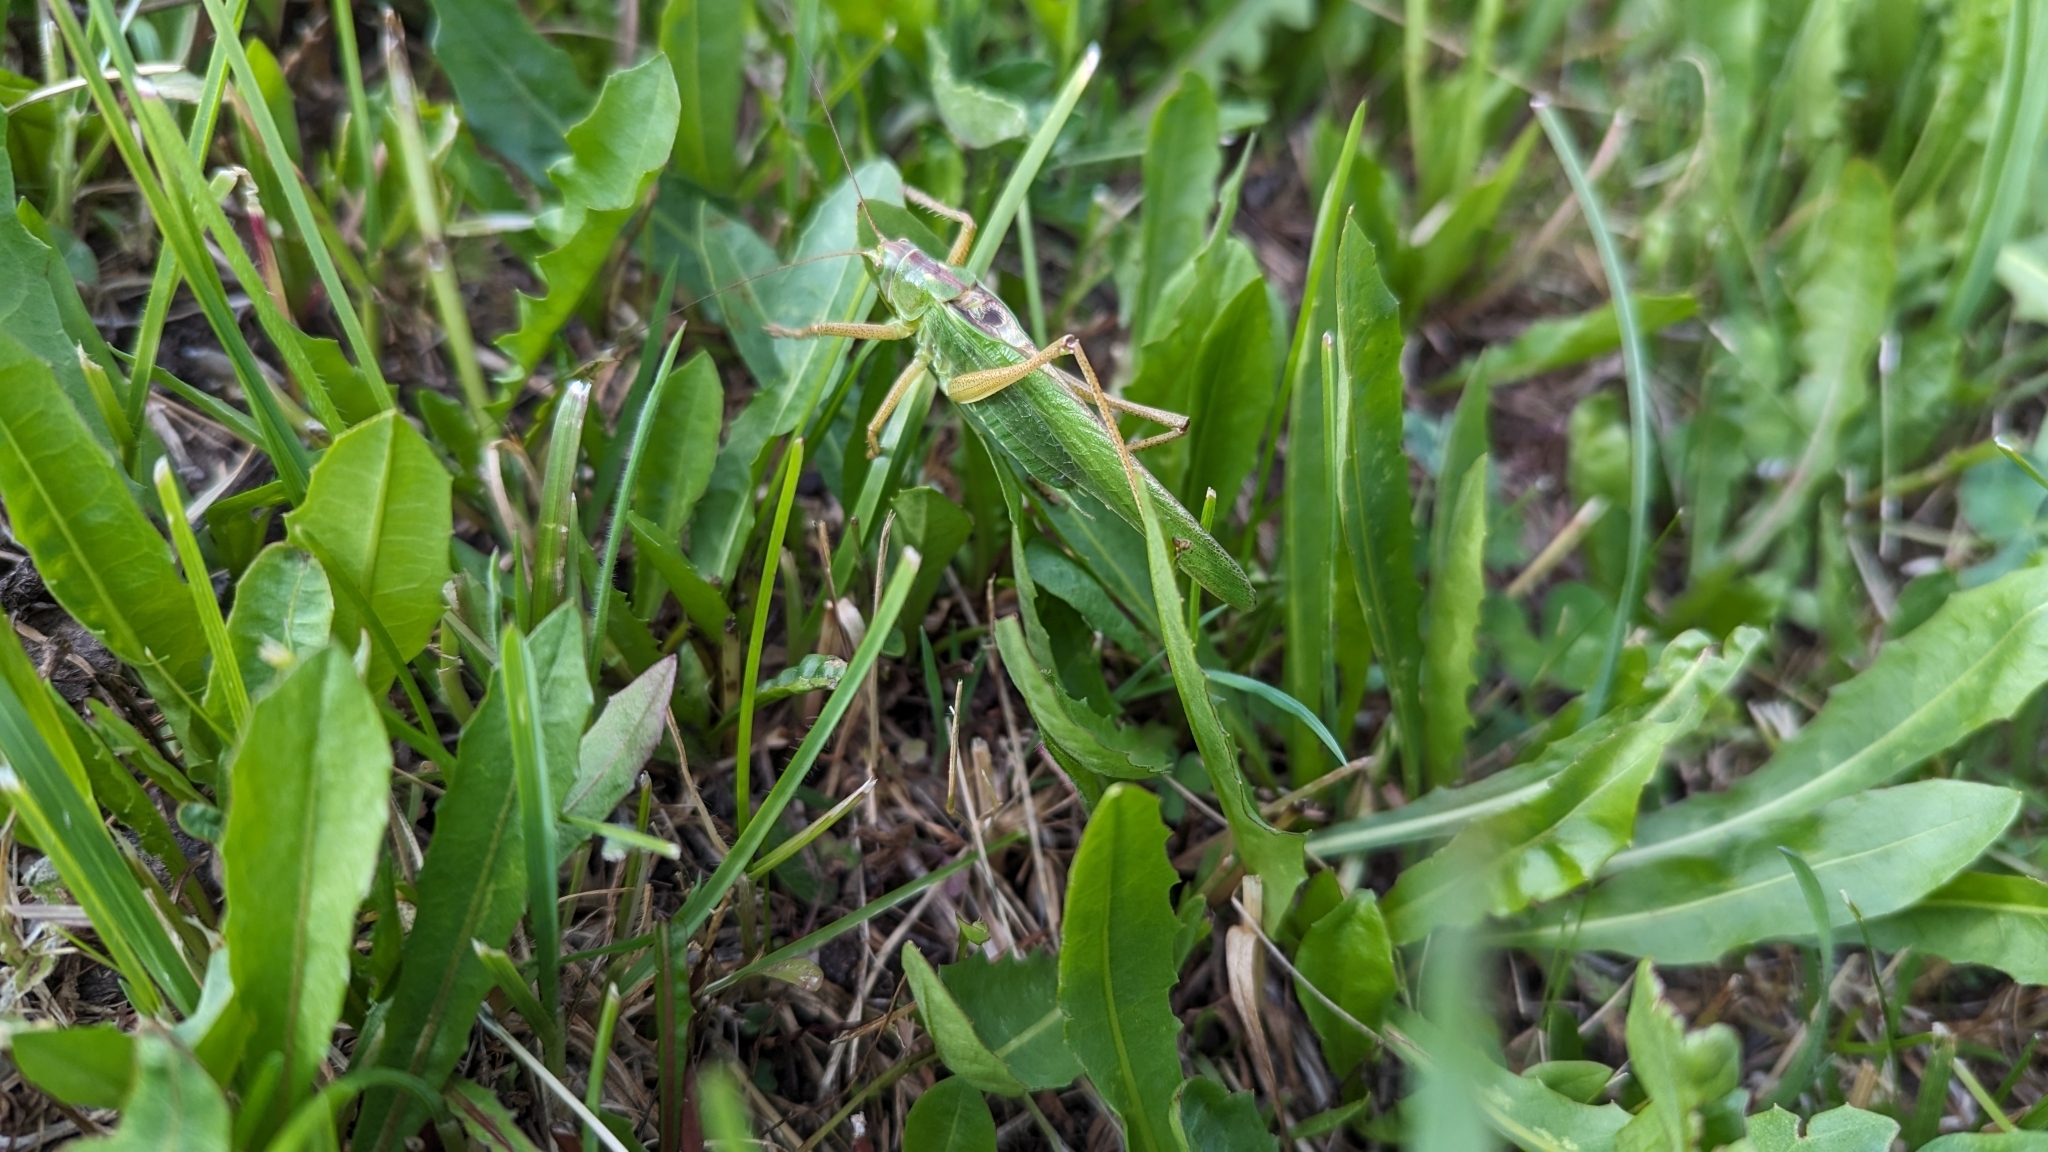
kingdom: Animalia
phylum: Arthropoda
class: Insecta
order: Orthoptera
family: Tettigoniidae
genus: Tettigonia
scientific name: Tettigonia viridissima
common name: Great green bush-cricket
